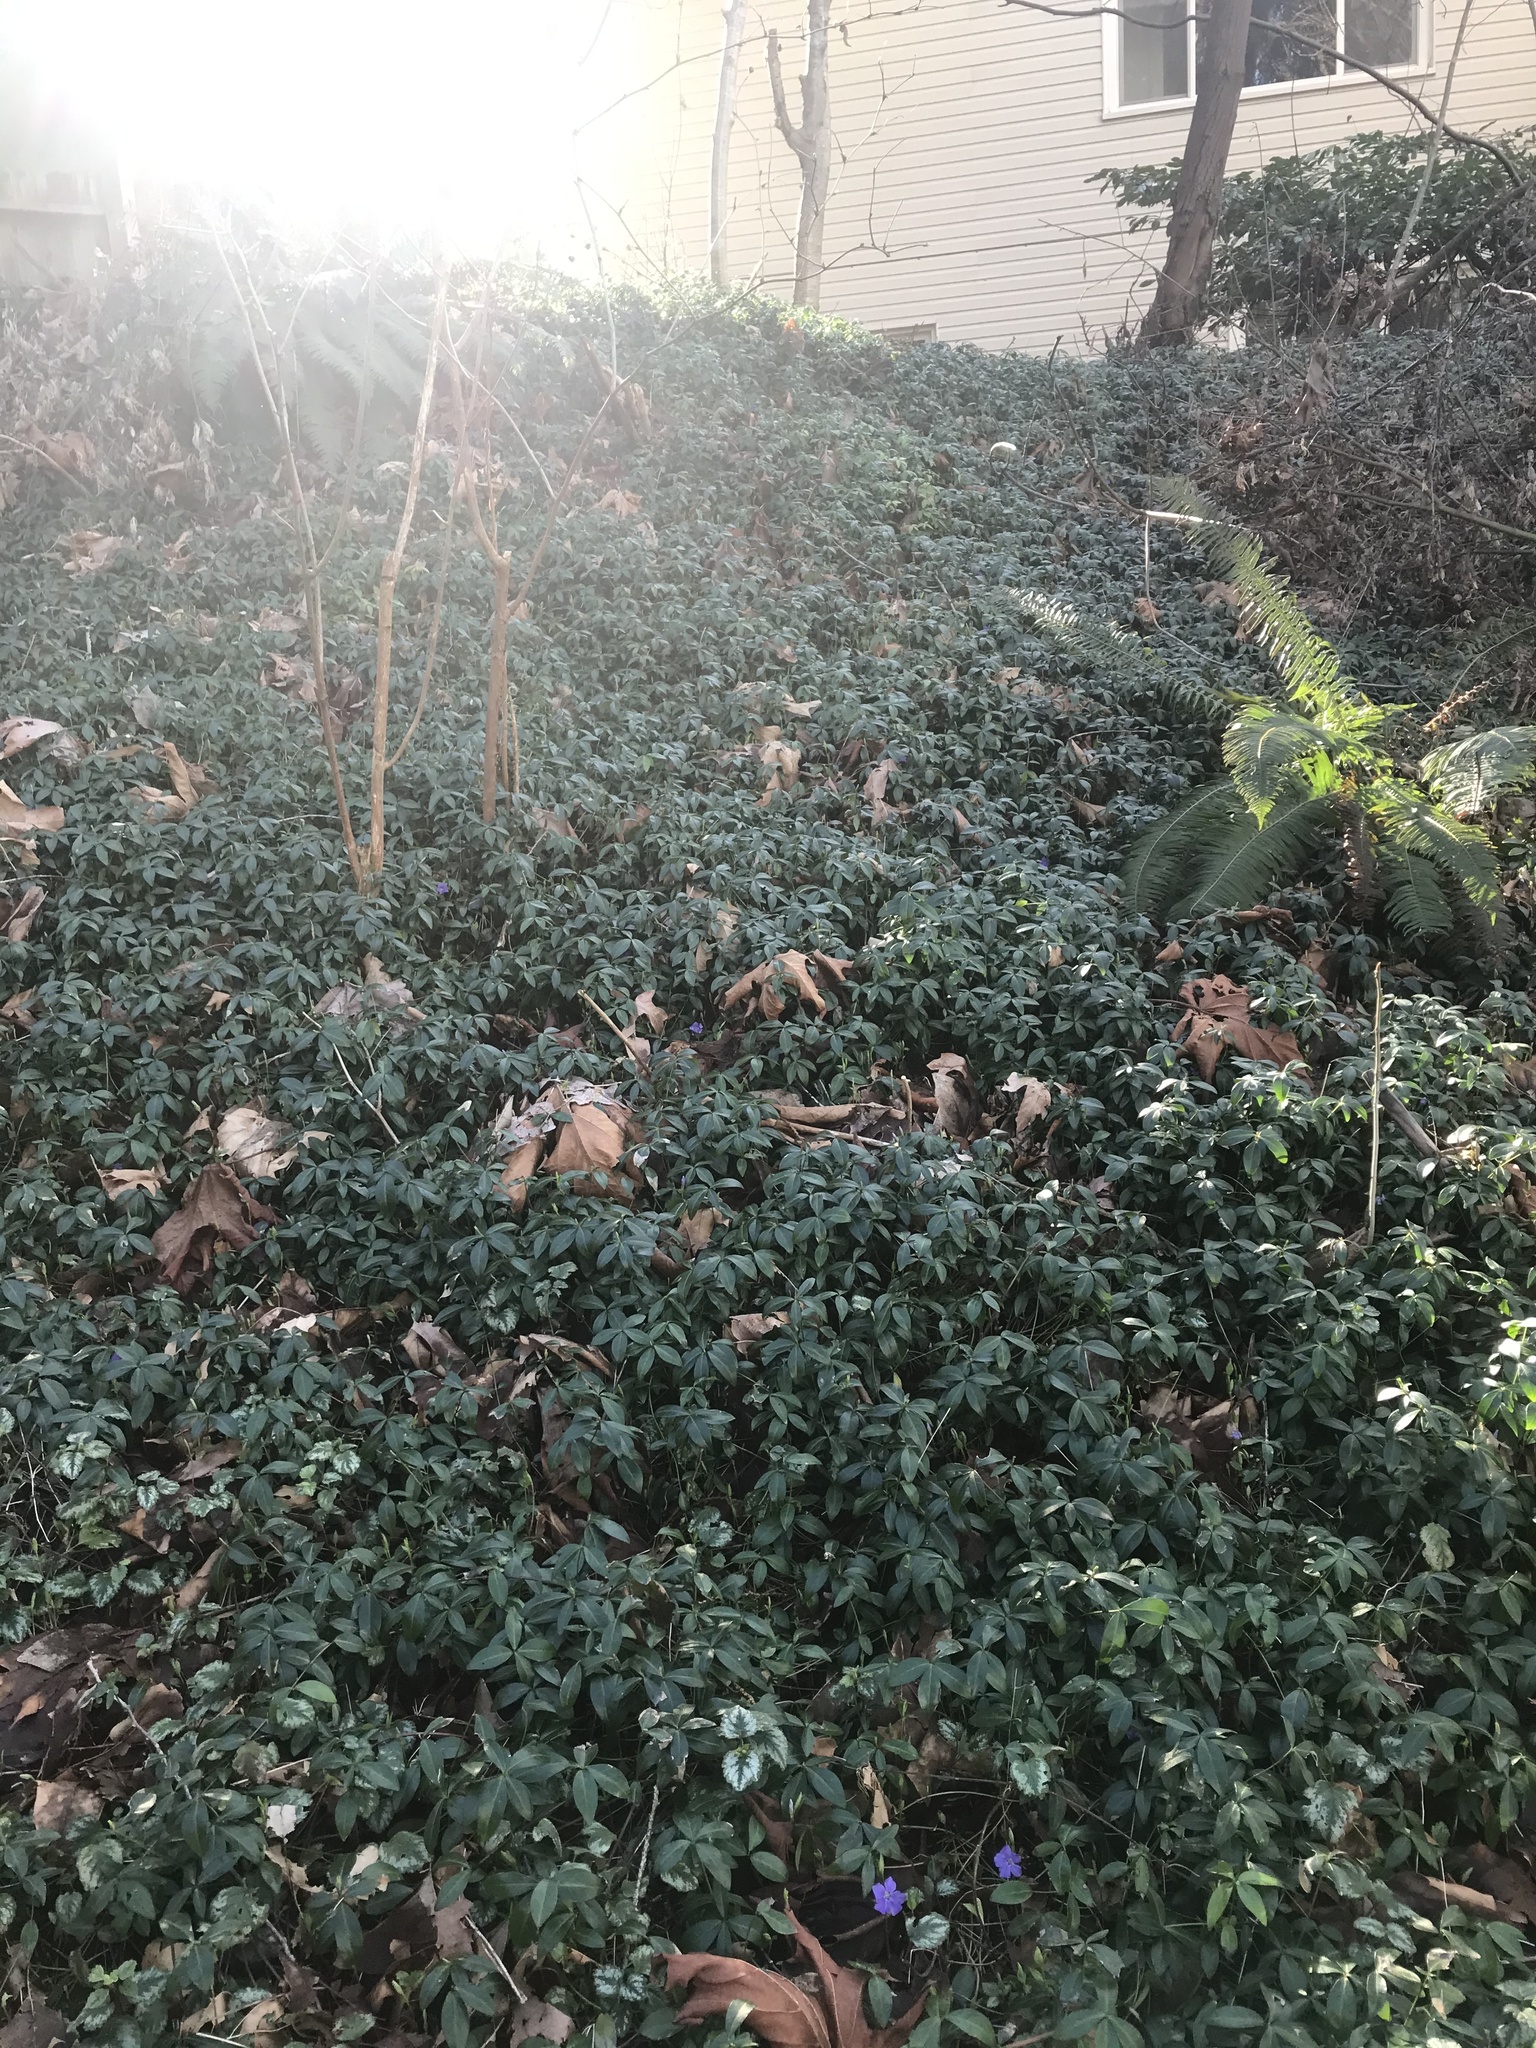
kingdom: Plantae
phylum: Tracheophyta
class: Magnoliopsida
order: Gentianales
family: Apocynaceae
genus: Vinca
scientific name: Vinca minor
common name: Lesser periwinkle
